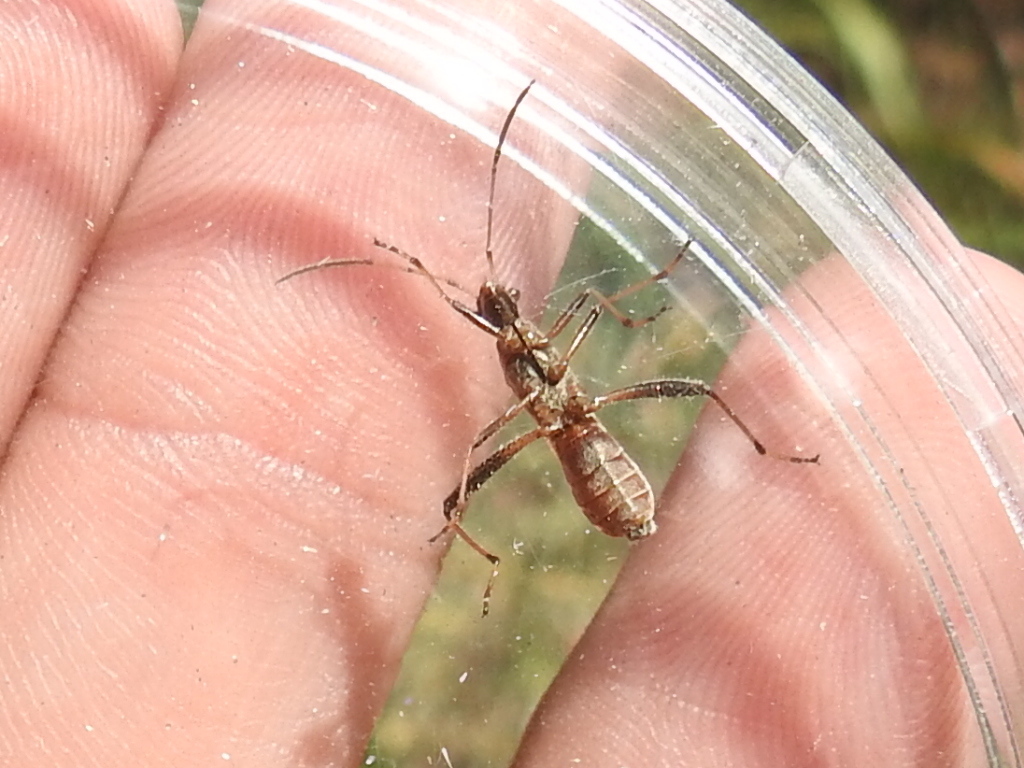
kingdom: Animalia
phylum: Arthropoda
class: Insecta
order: Hemiptera
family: Alydidae
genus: Alydus
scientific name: Alydus pilosulus
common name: Broad-headed bug
